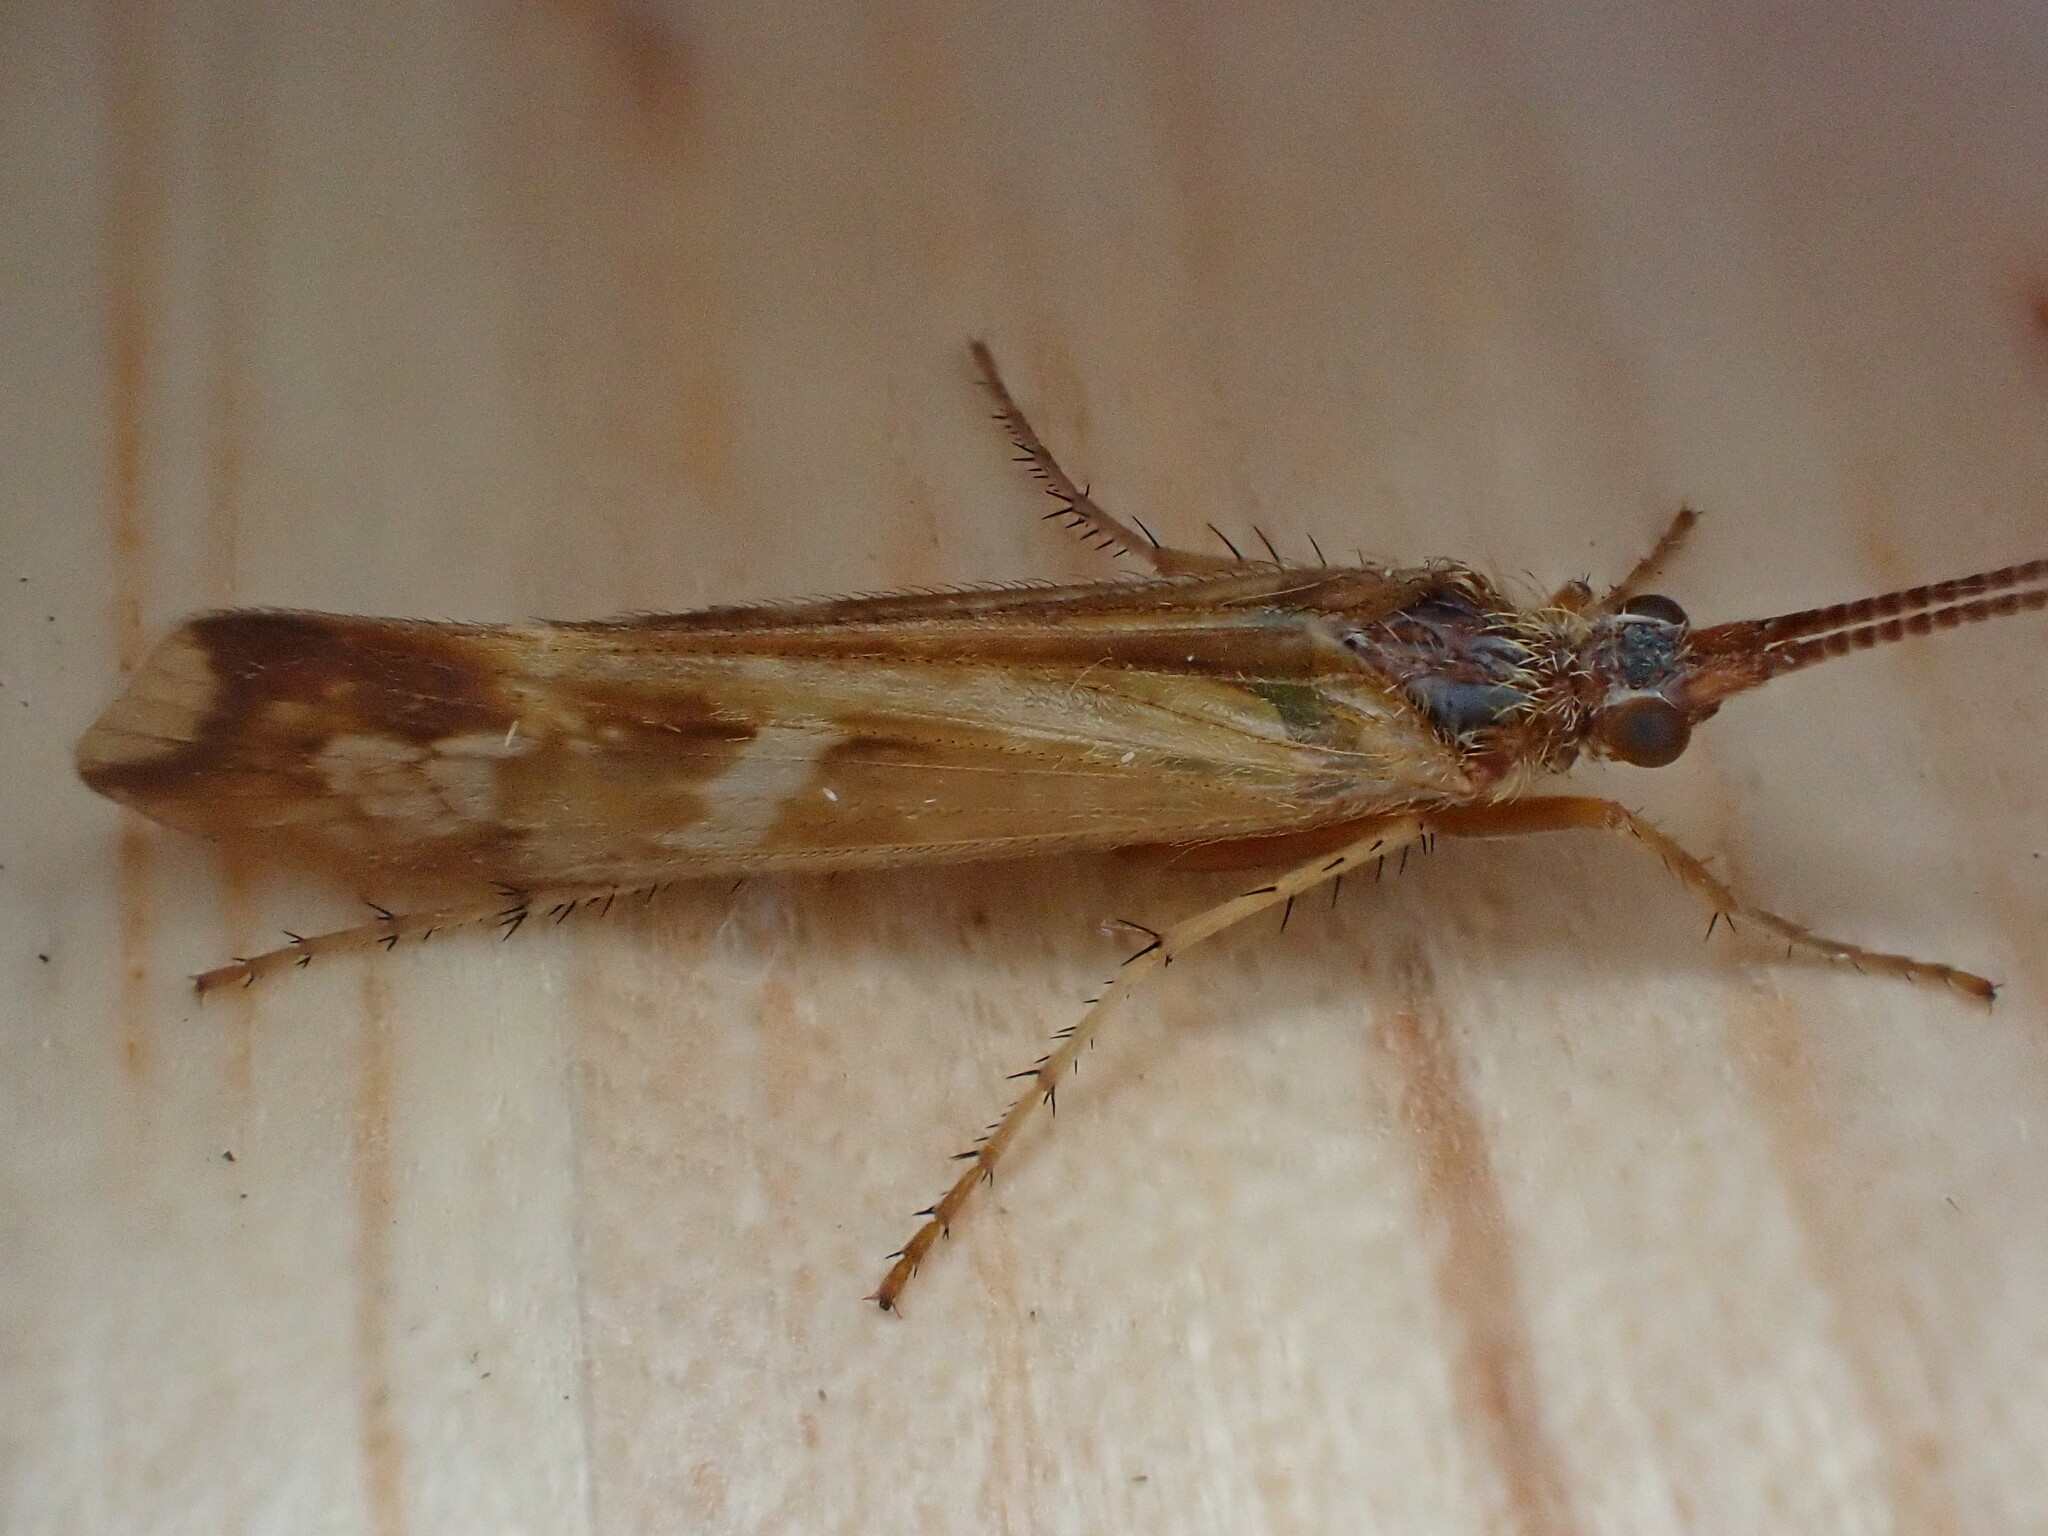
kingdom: Animalia
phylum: Arthropoda
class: Insecta
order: Trichoptera
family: Limnephilidae
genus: Limnephilus
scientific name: Limnephilus lunatus
